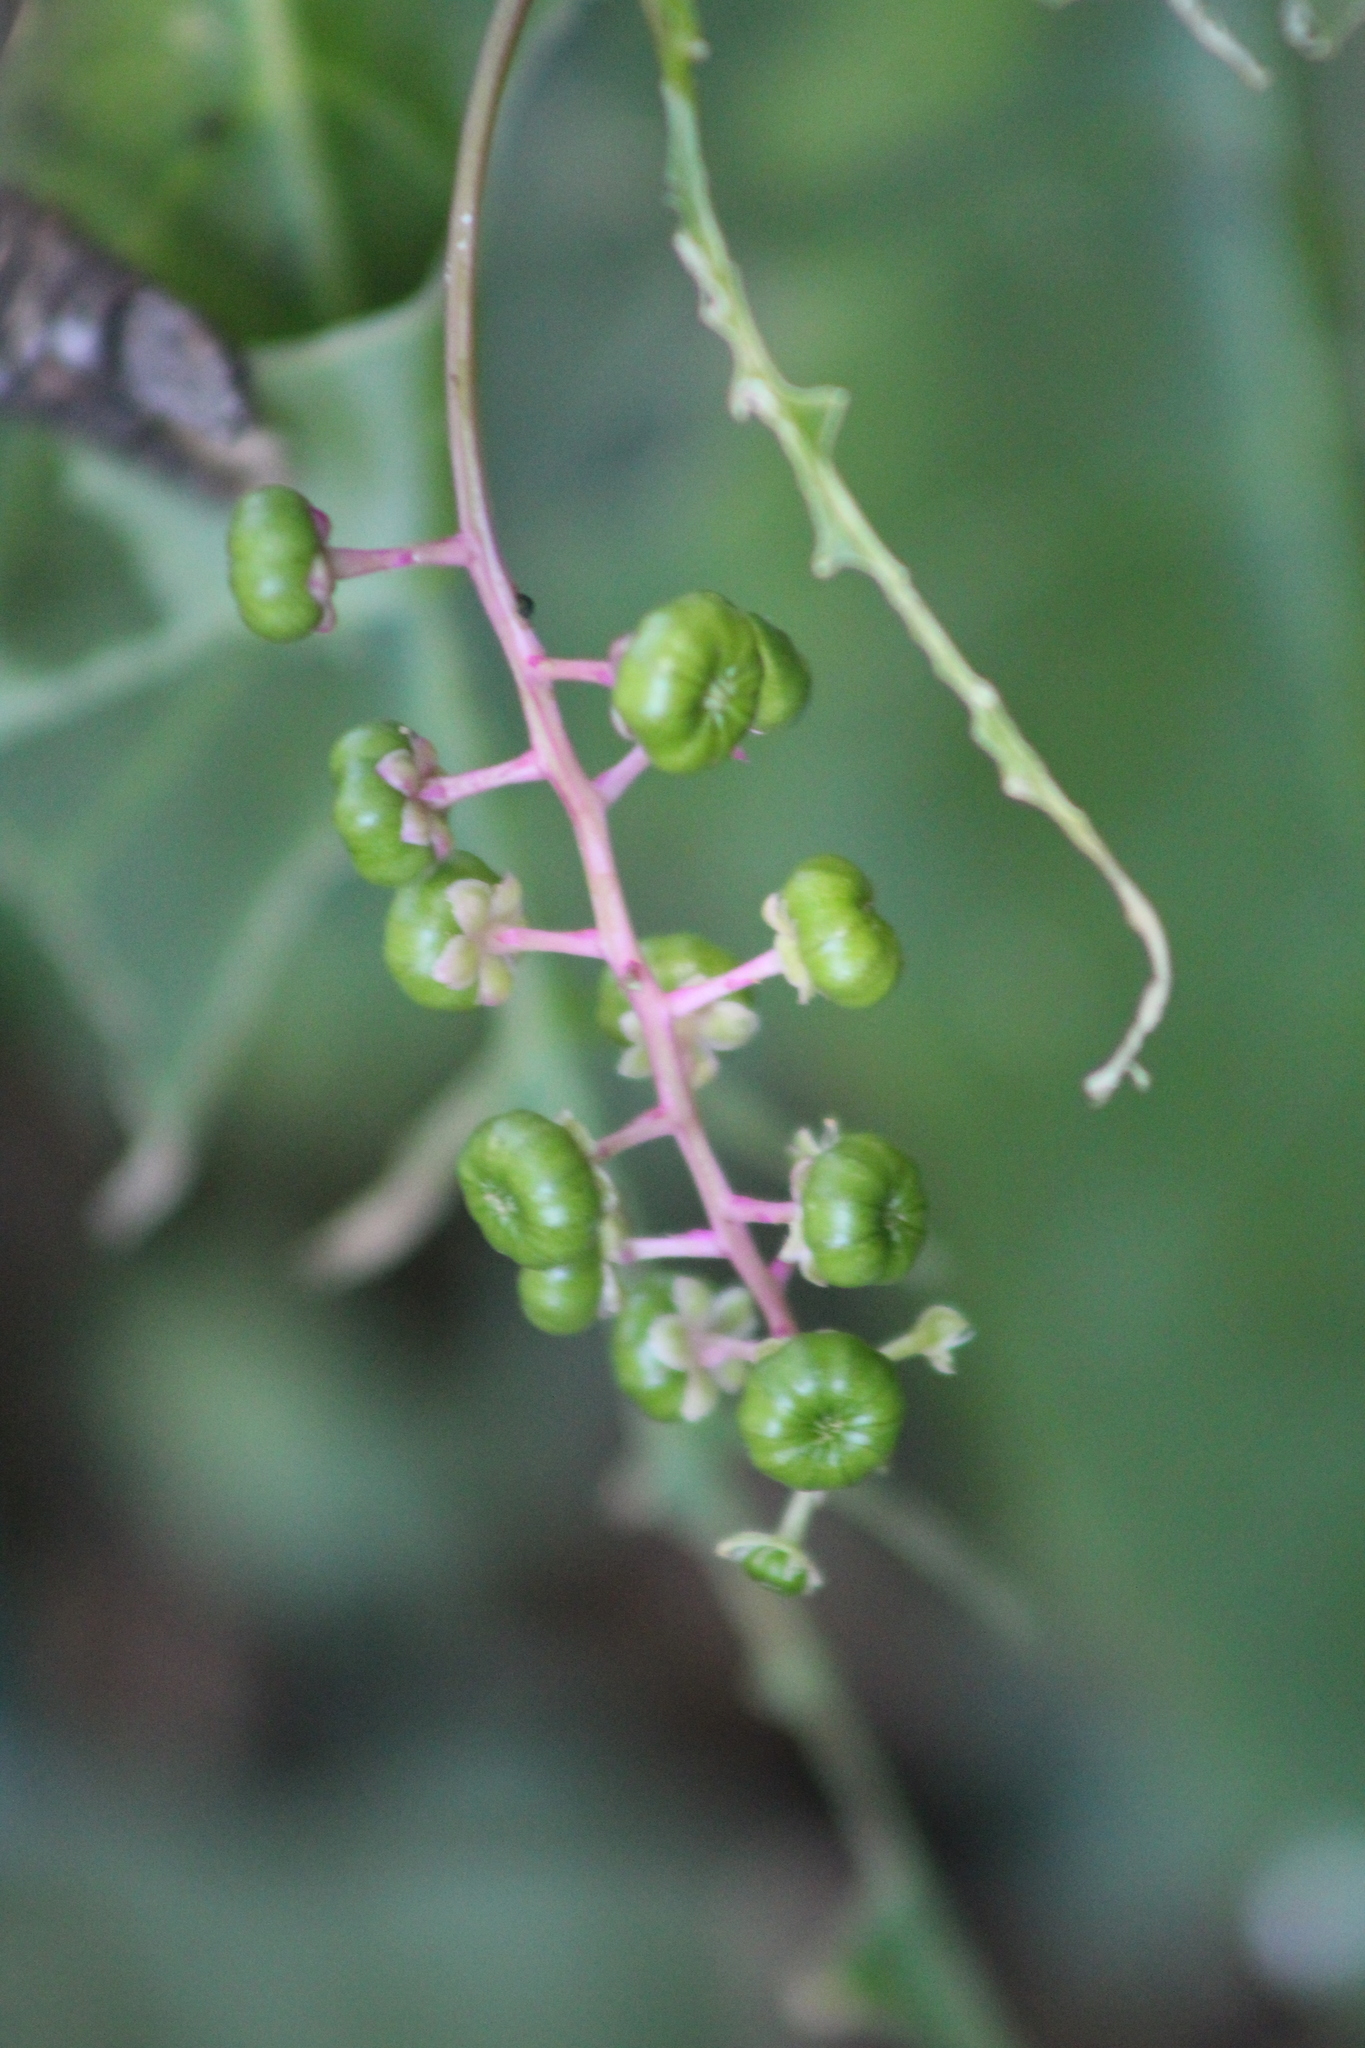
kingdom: Plantae
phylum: Tracheophyta
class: Magnoliopsida
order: Caryophyllales
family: Phytolaccaceae
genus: Phytolacca
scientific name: Phytolacca americana
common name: American pokeweed
